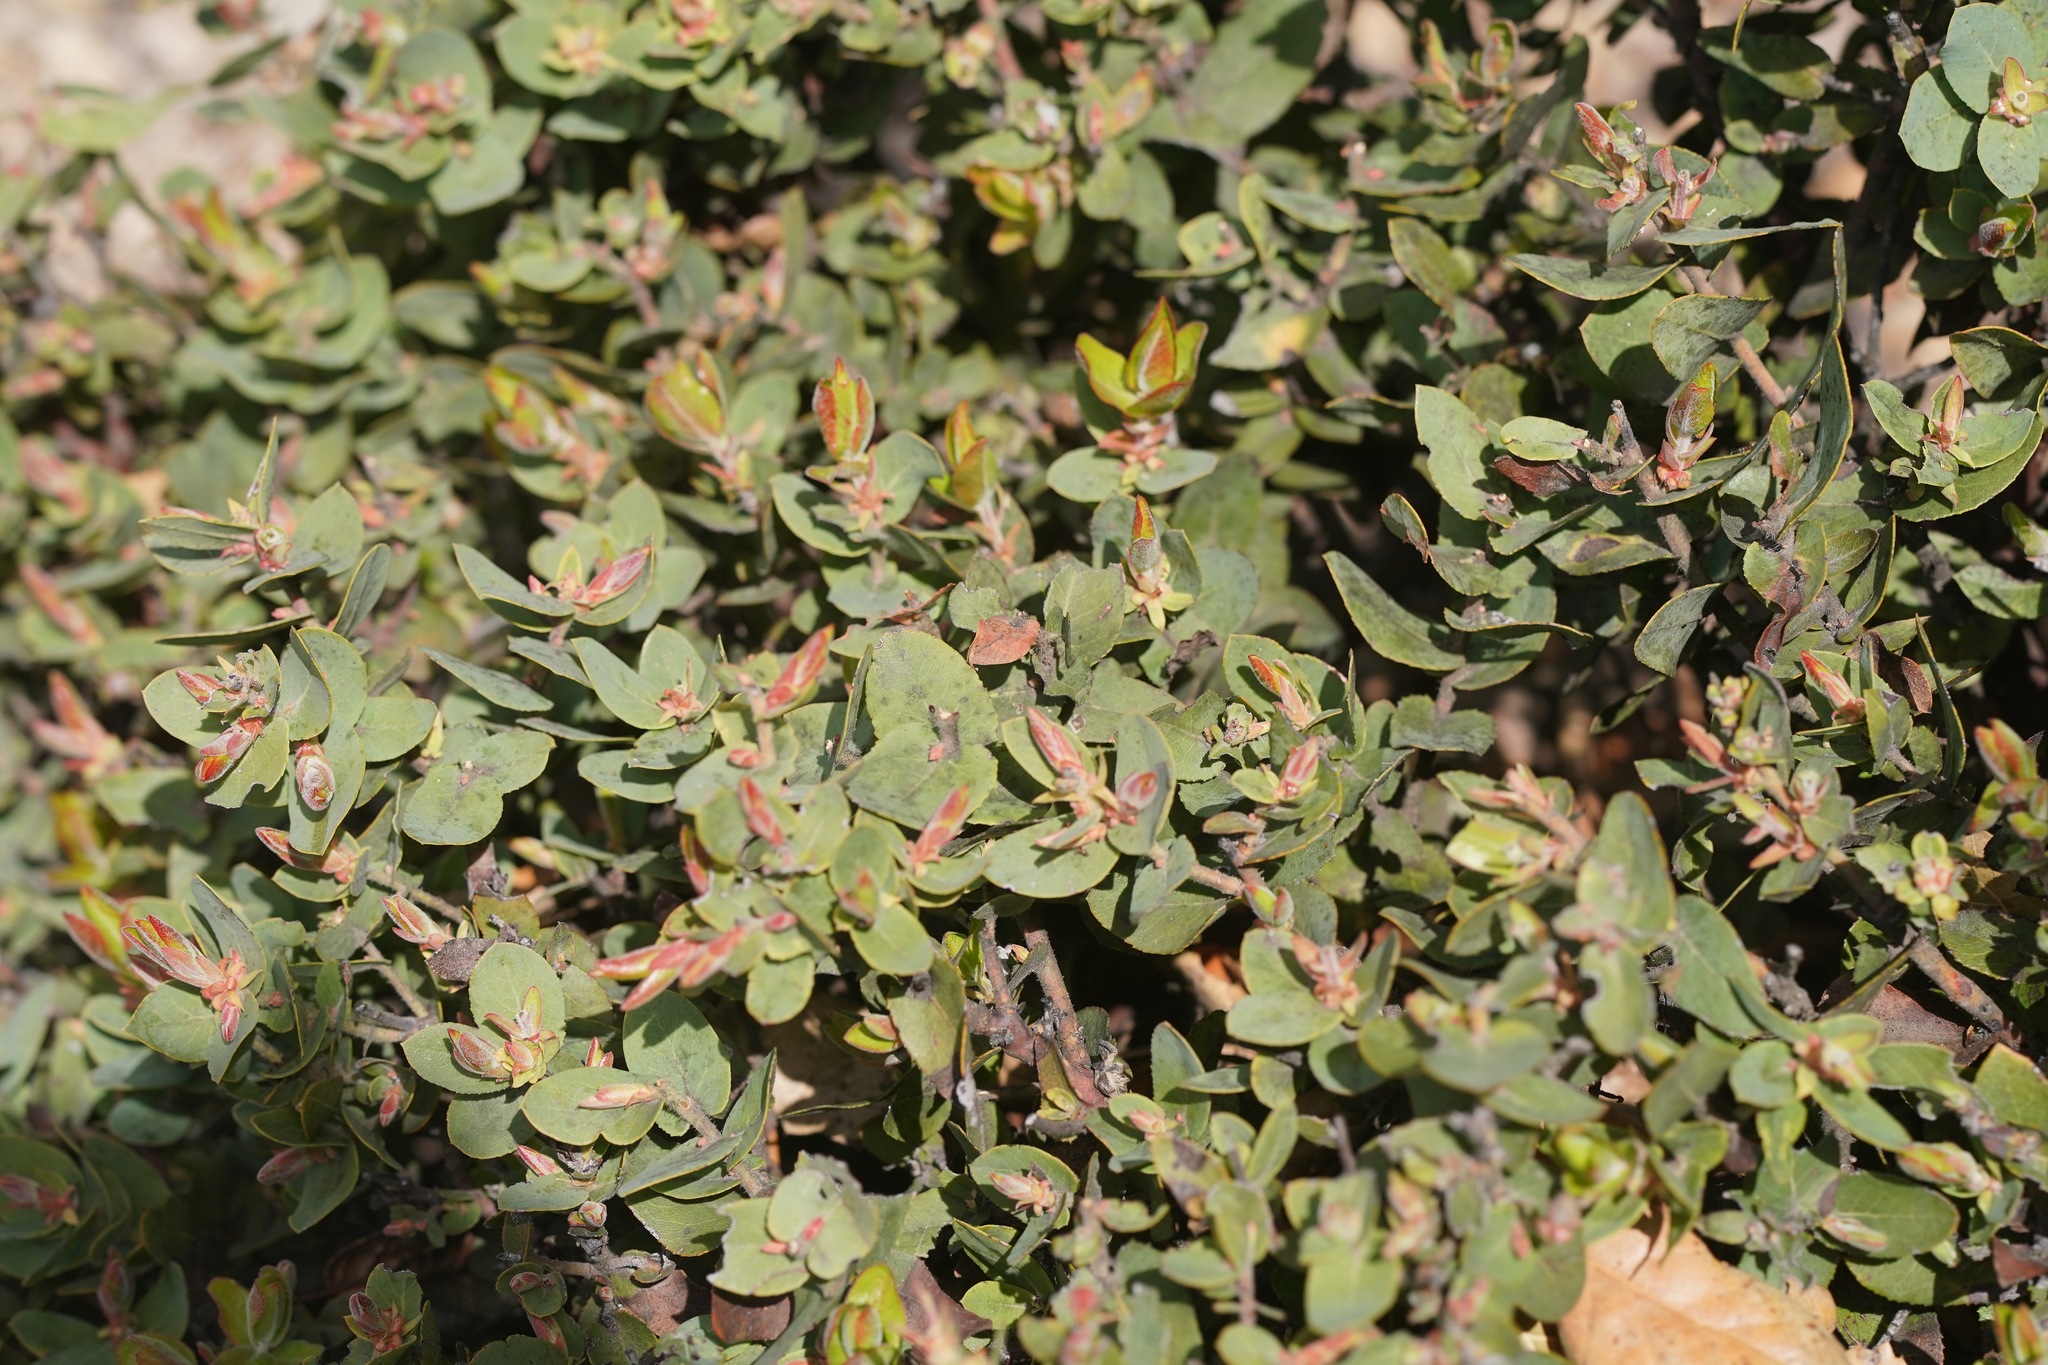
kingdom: Plantae
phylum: Tracheophyta
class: Magnoliopsida
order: Ericales
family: Ericaceae
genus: Arctostaphylos
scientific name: Arctostaphylos pallida
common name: Pallid manzanita
